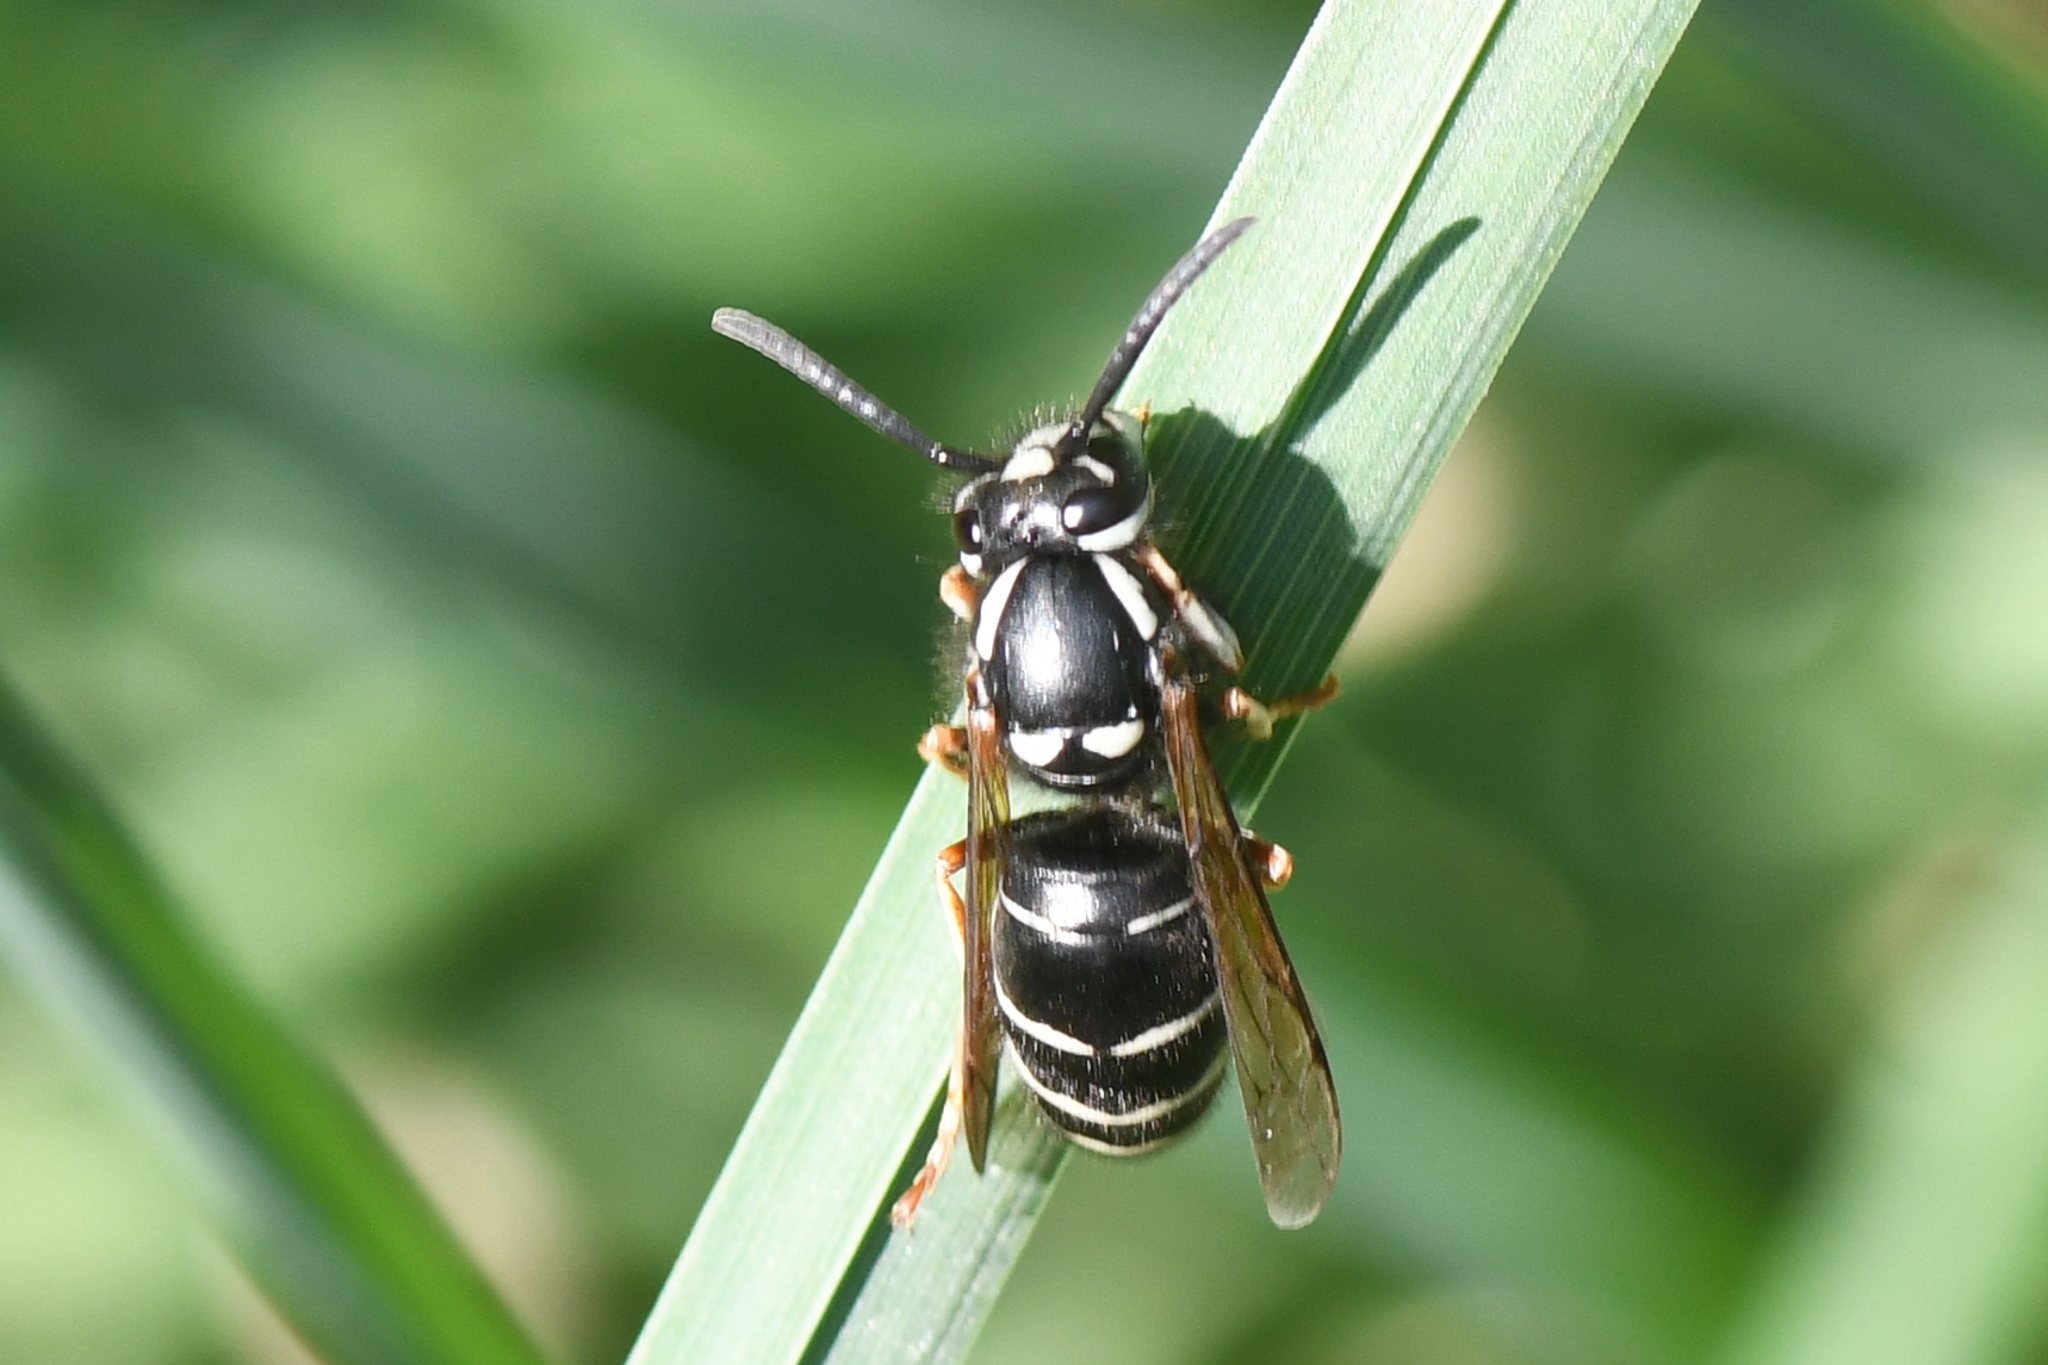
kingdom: Animalia
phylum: Arthropoda
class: Insecta
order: Hymenoptera
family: Vespidae
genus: Vespula
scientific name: Vespula consobrina
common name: Blackjacket
